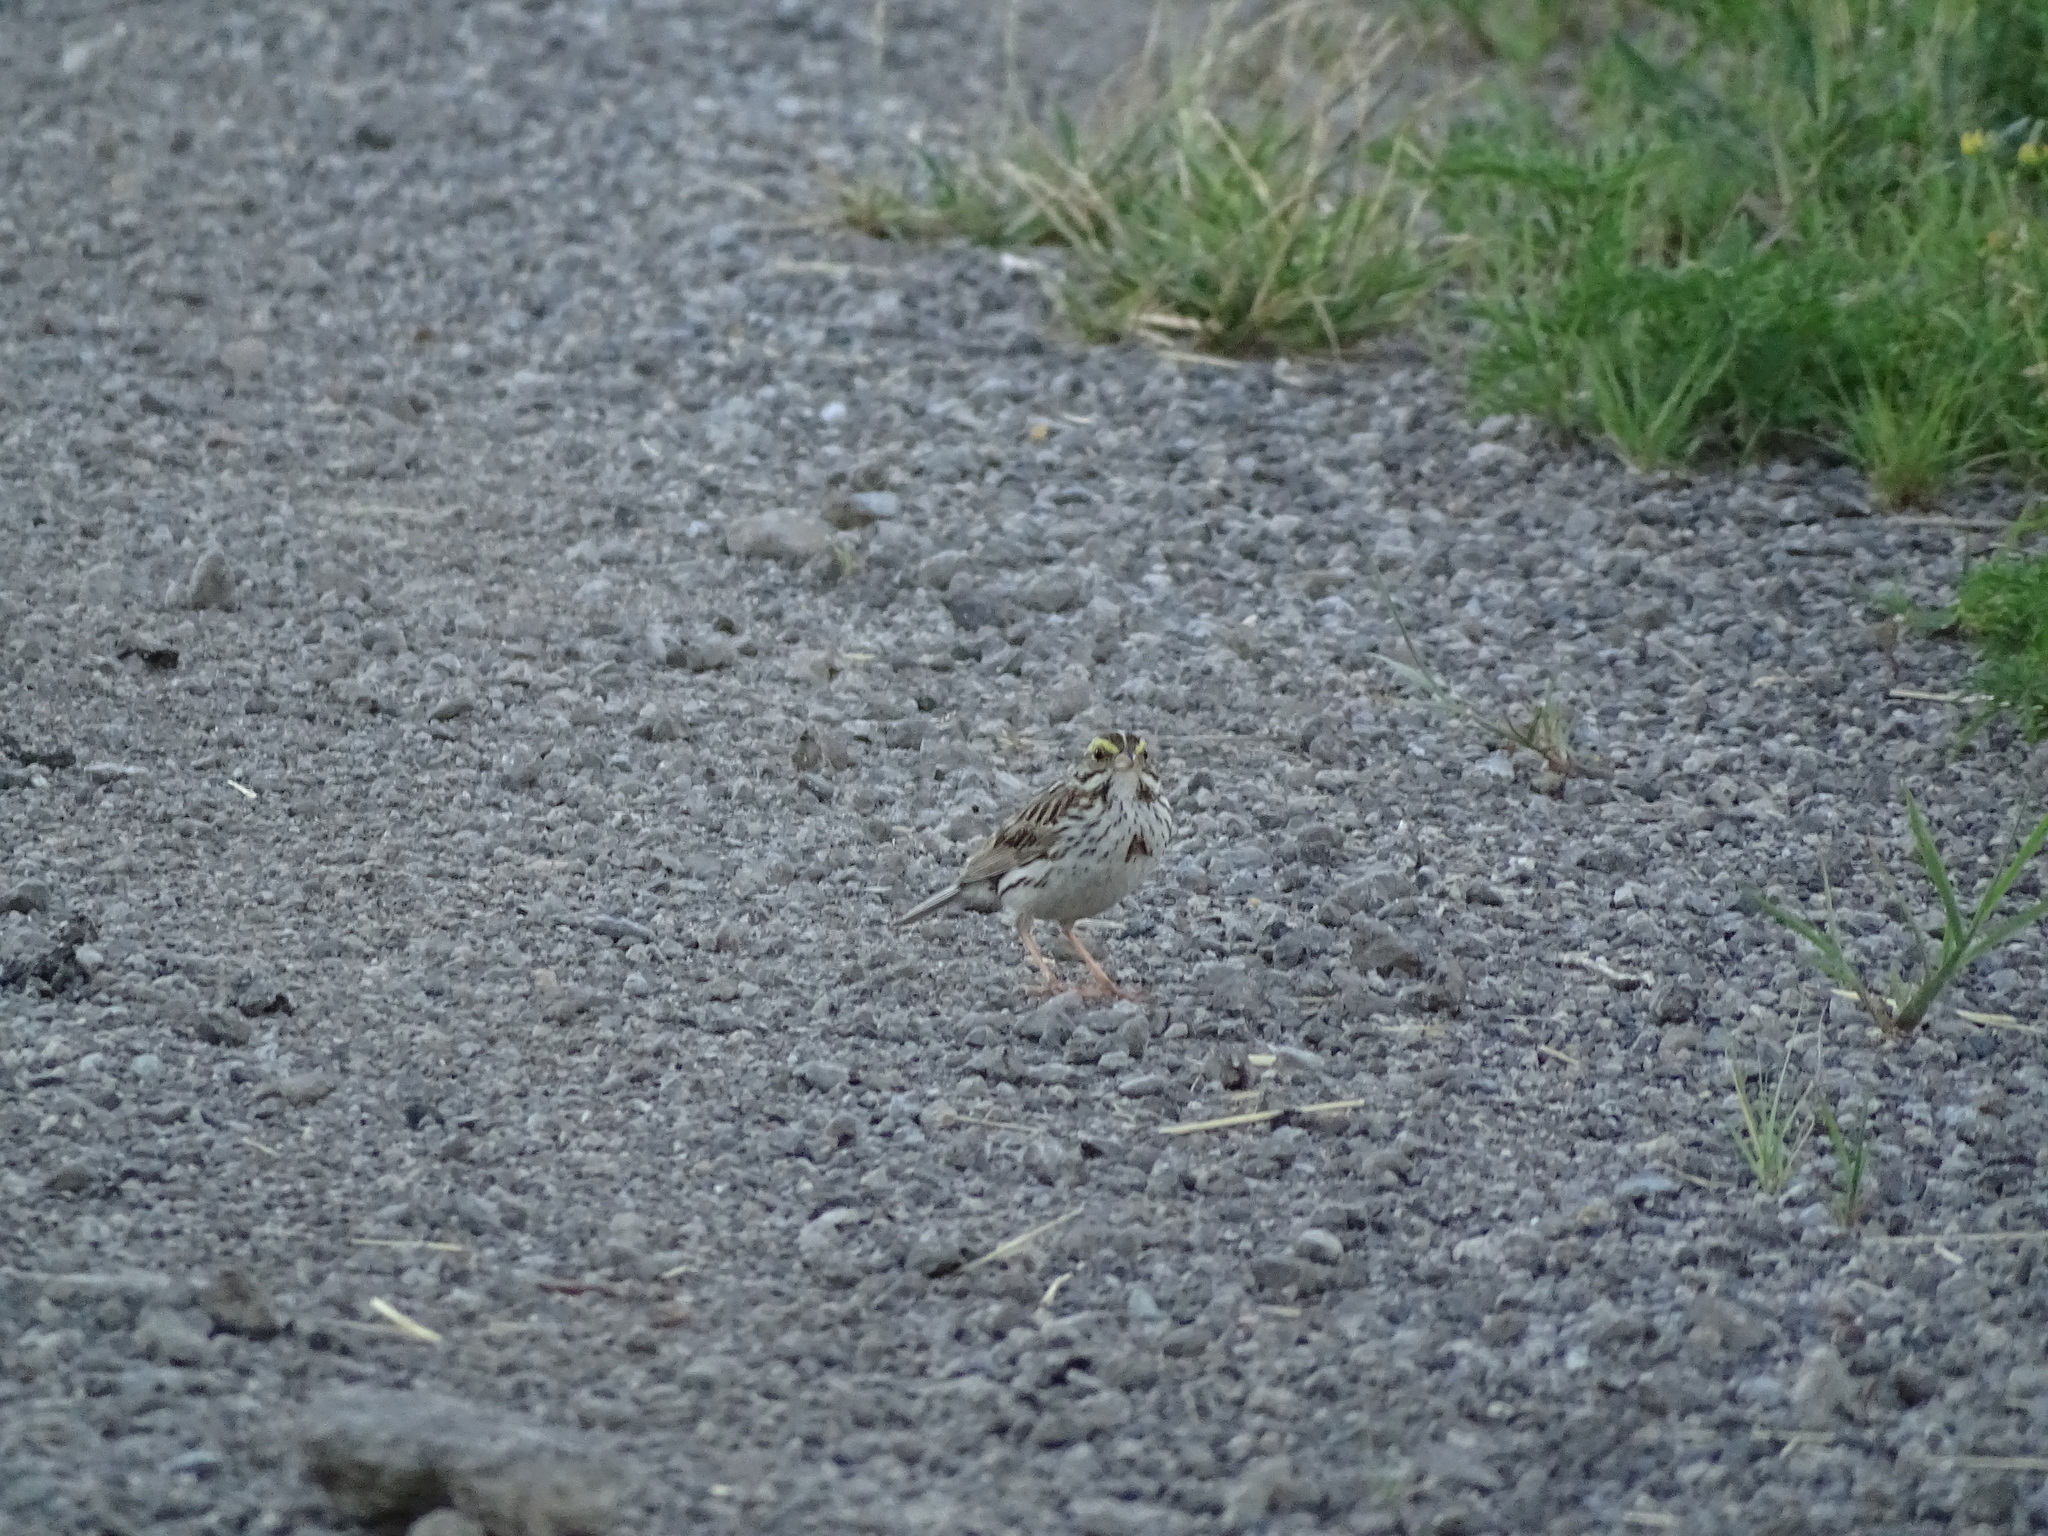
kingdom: Animalia
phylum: Chordata
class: Aves
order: Passeriformes
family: Passerellidae
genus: Passerculus
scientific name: Passerculus sandwichensis
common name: Savannah sparrow
